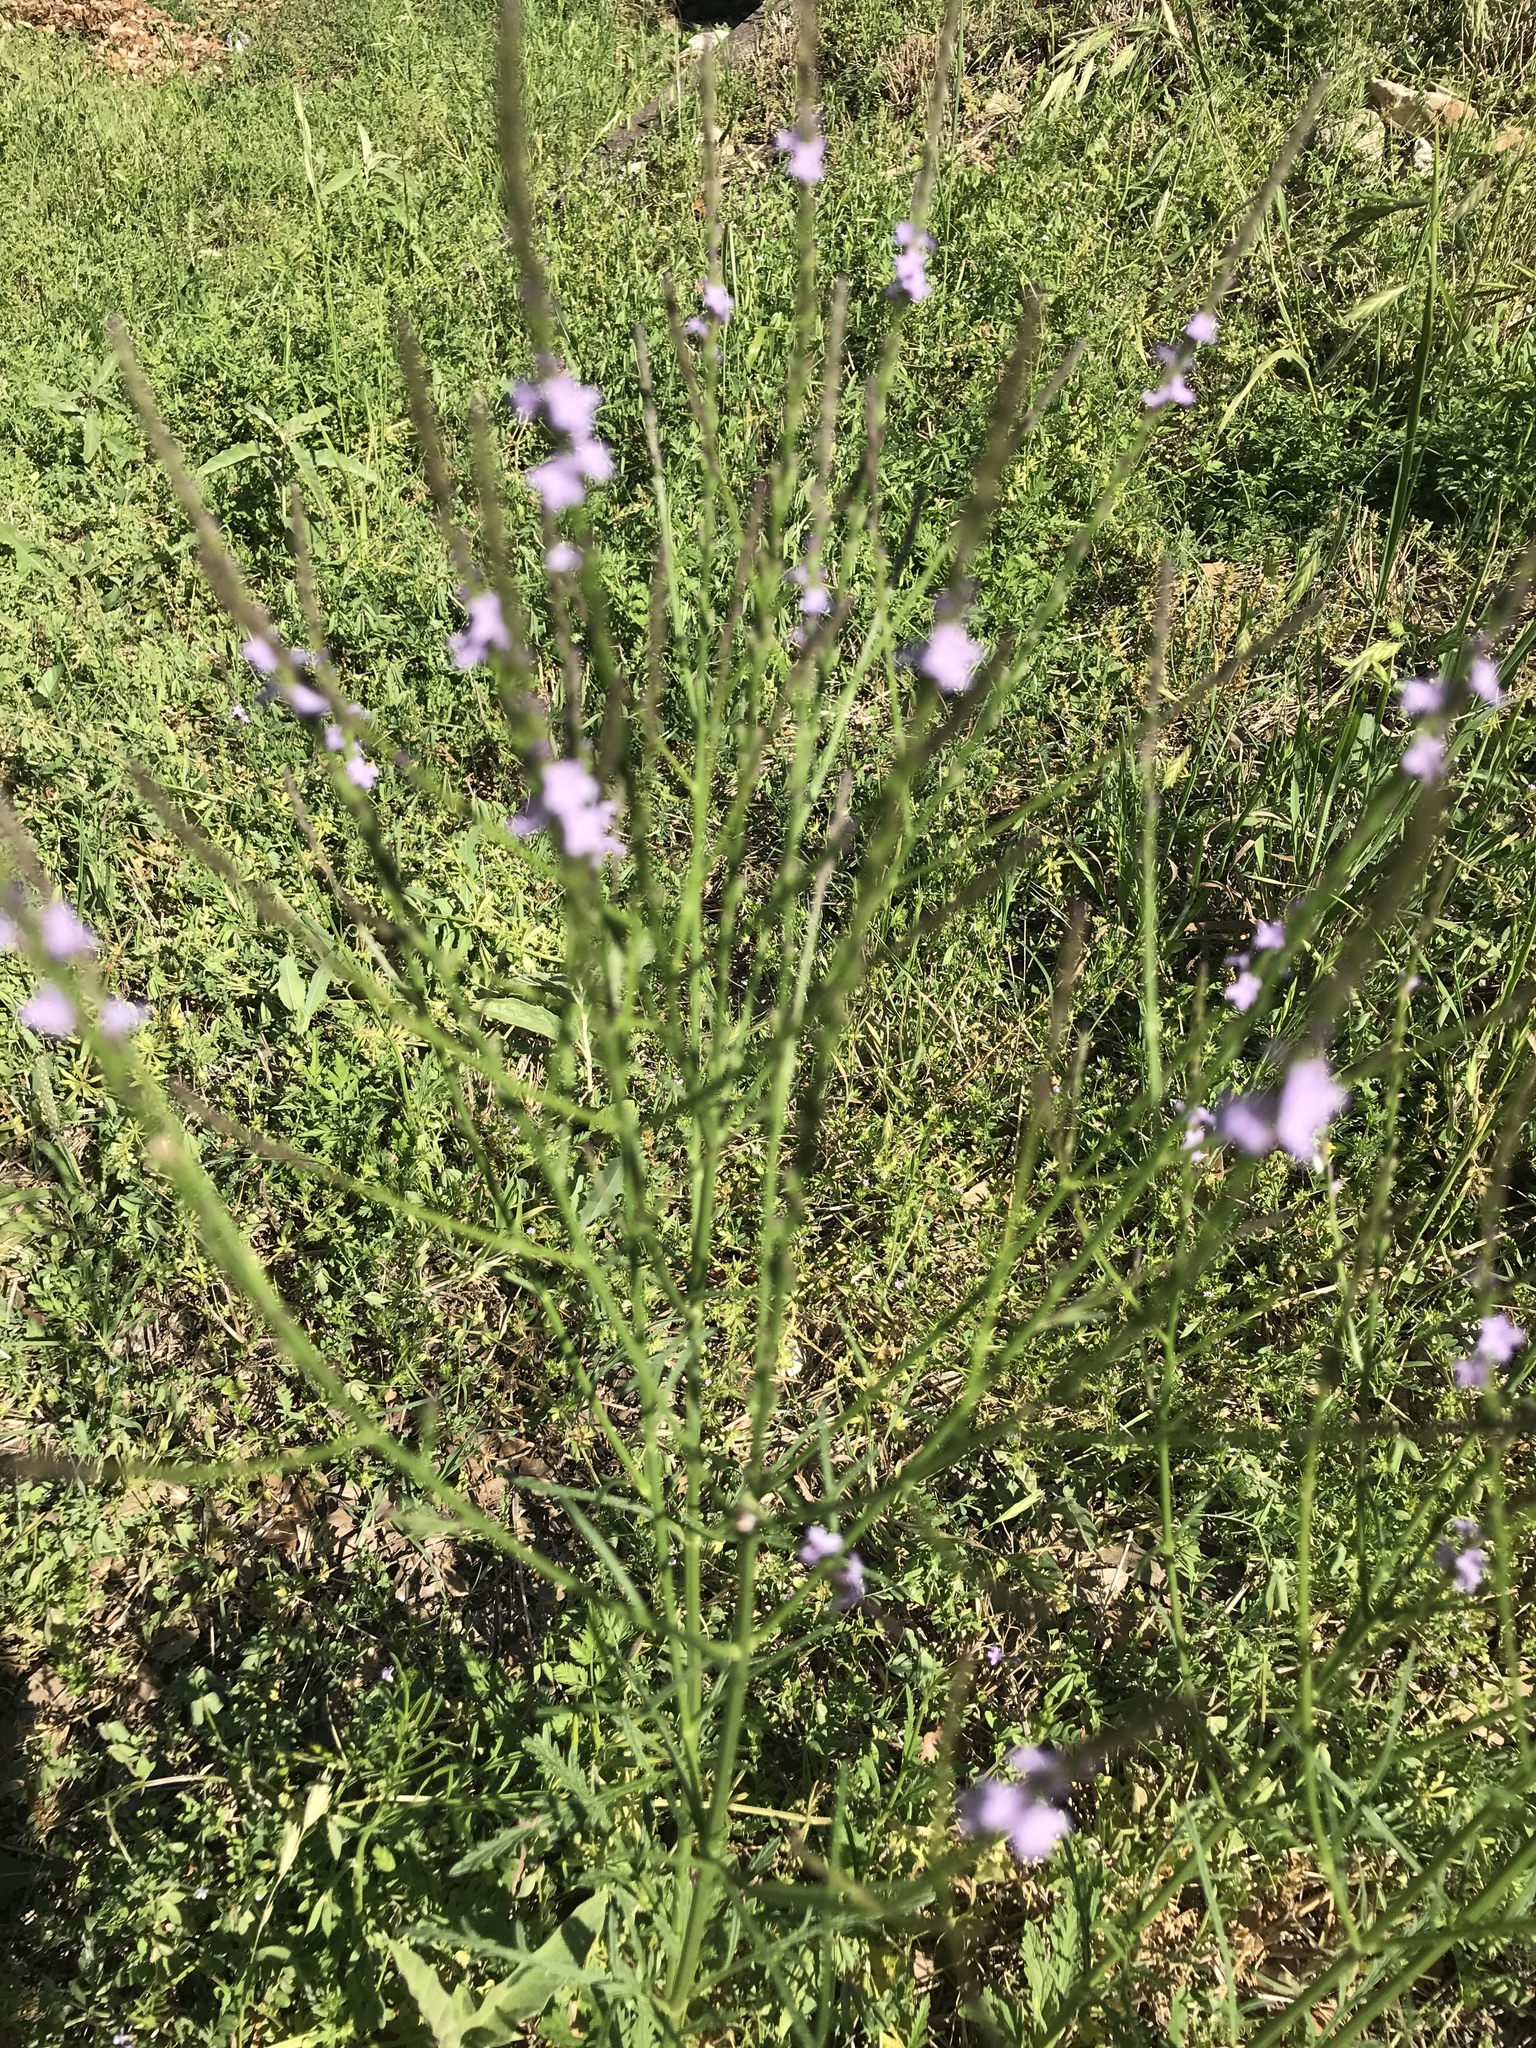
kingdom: Plantae
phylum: Tracheophyta
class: Magnoliopsida
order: Lamiales
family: Verbenaceae
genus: Verbena
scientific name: Verbena halei
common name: Texas vervain
